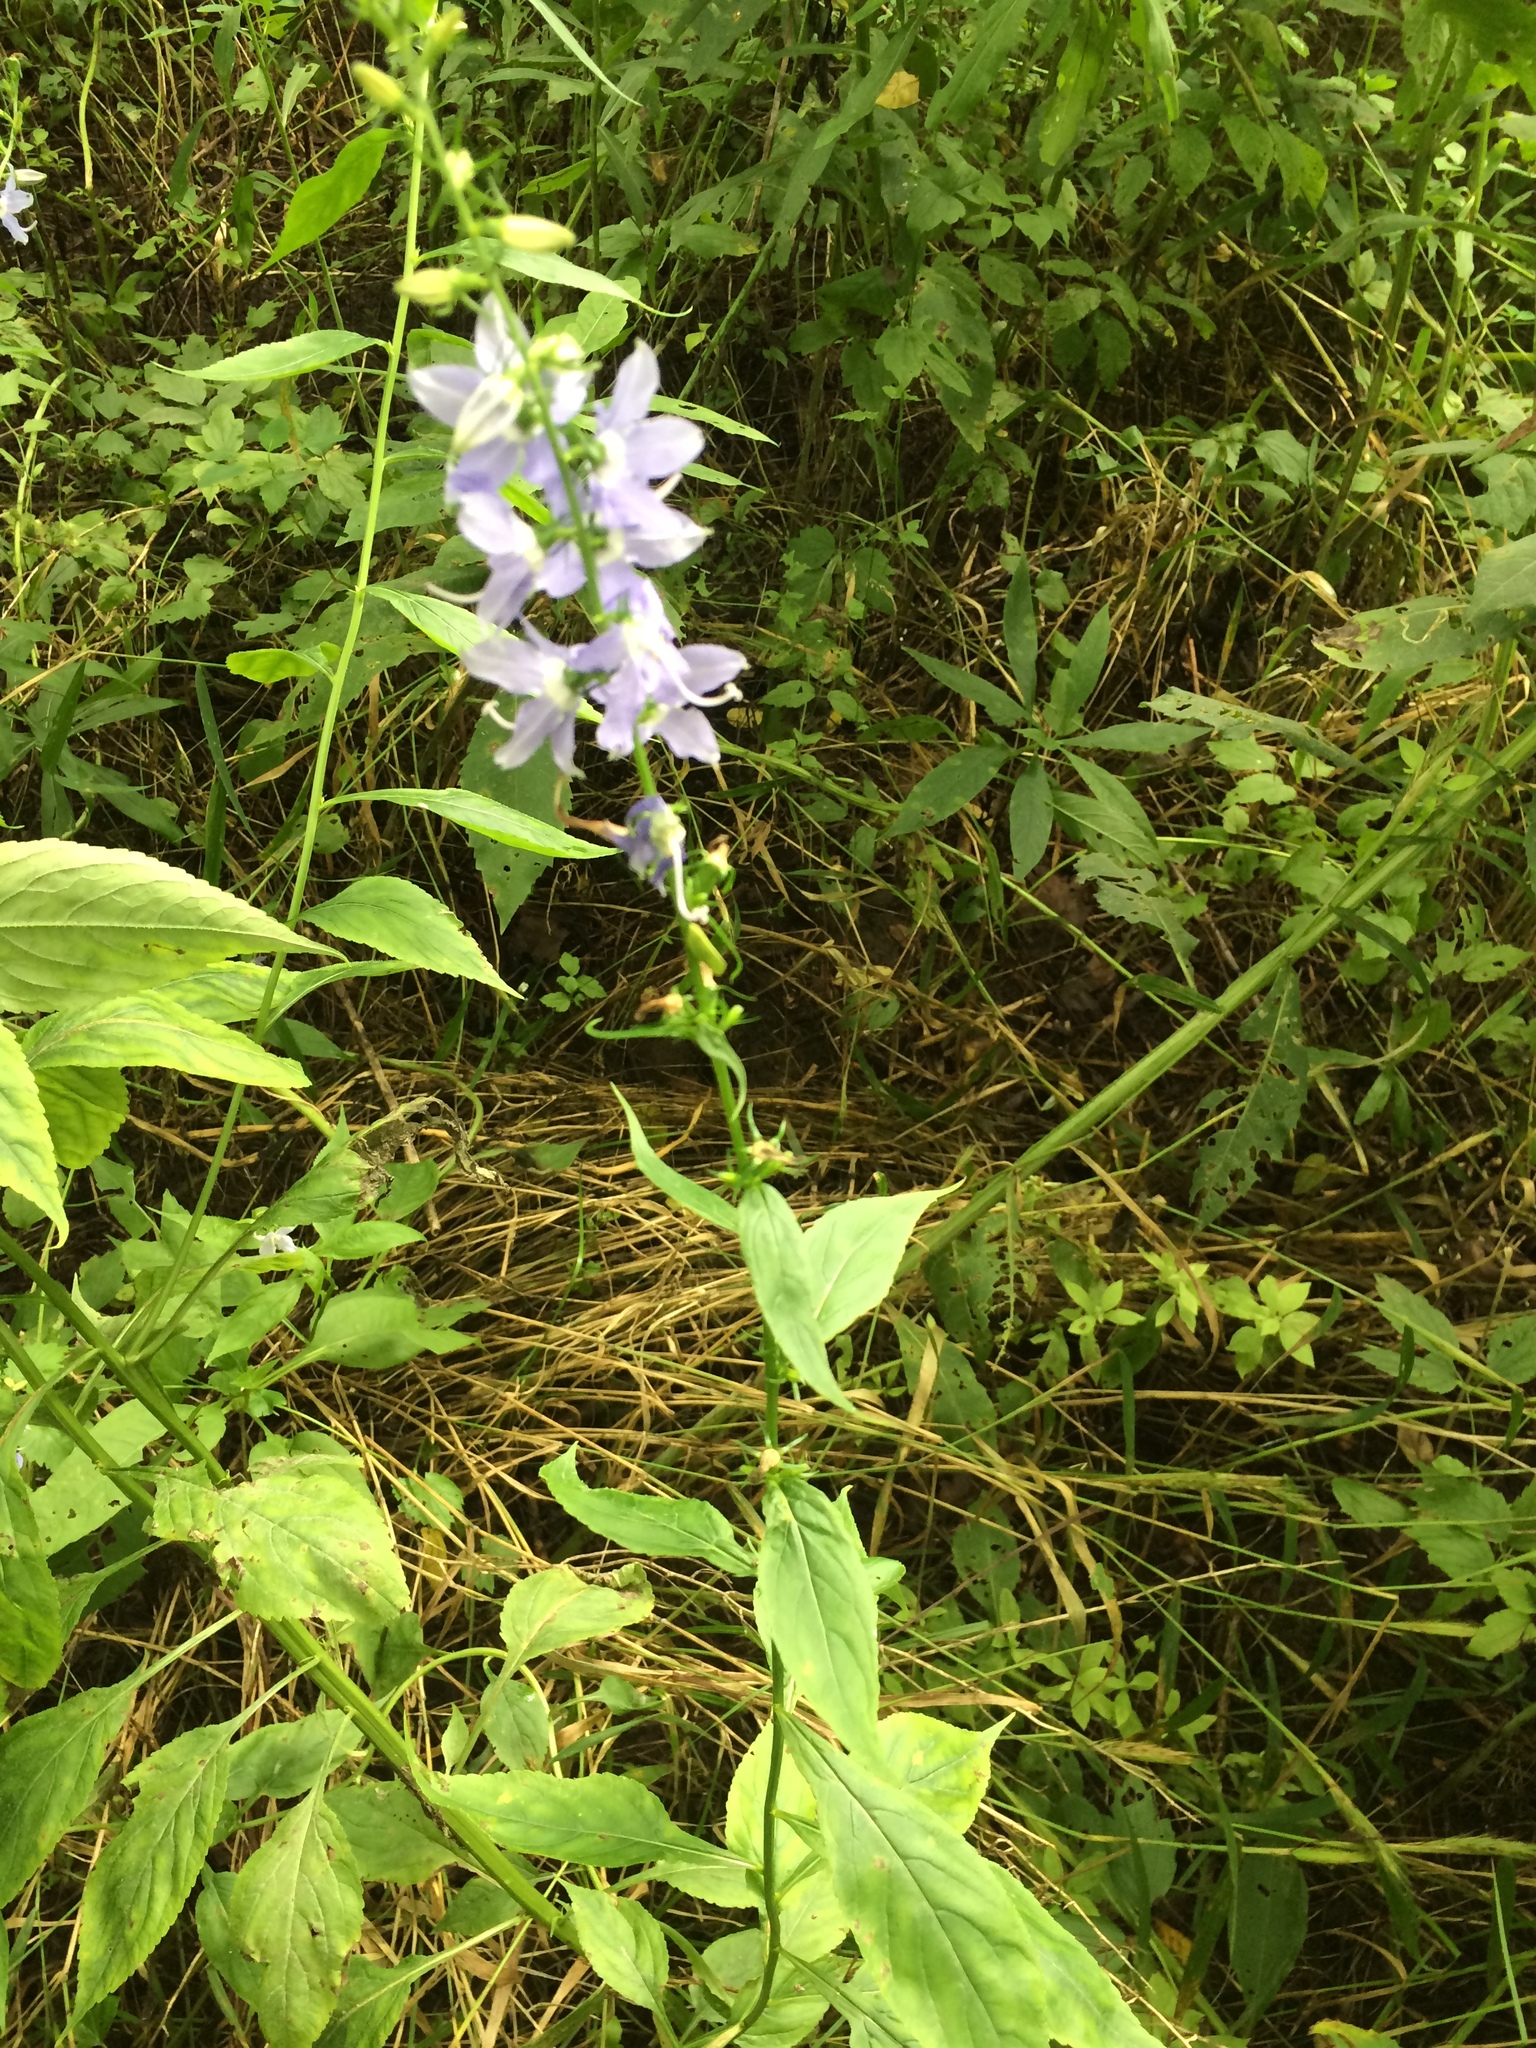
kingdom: Plantae
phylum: Tracheophyta
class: Magnoliopsida
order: Asterales
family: Campanulaceae
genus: Campanulastrum
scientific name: Campanulastrum americanum
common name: American bellflower
